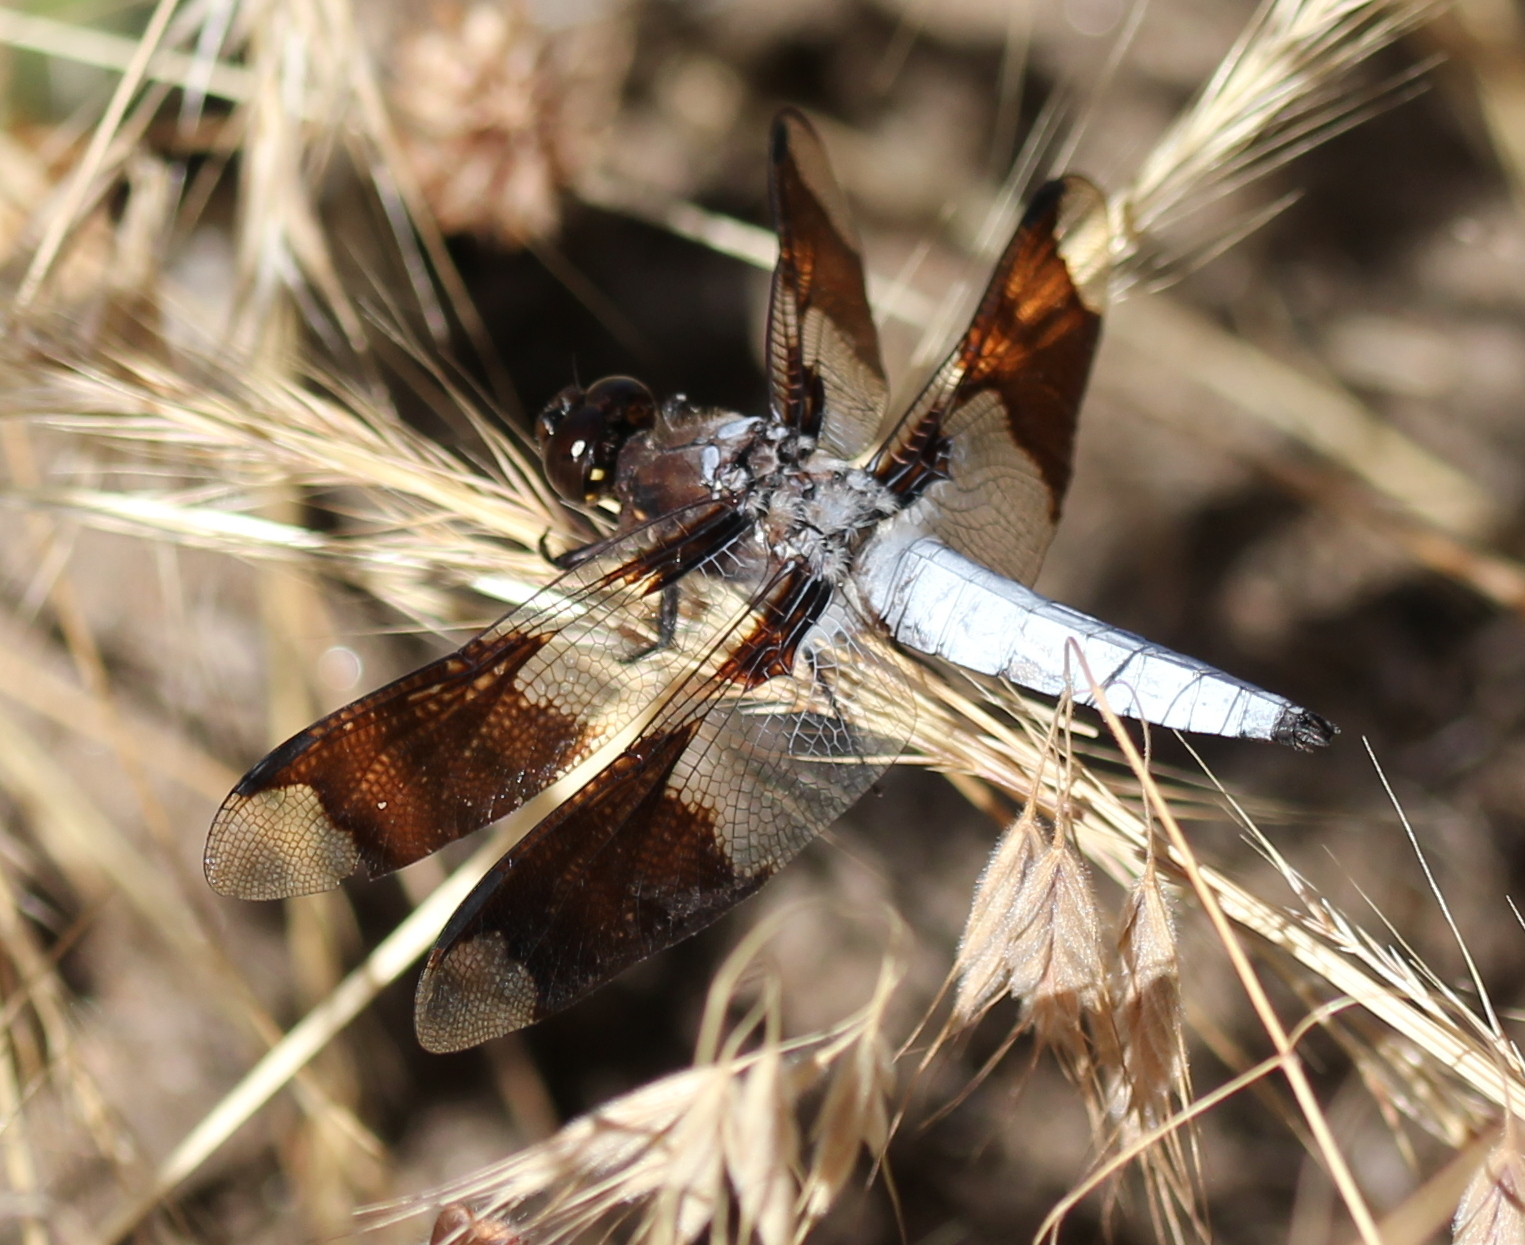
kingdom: Animalia
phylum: Arthropoda
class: Insecta
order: Odonata
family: Libellulidae
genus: Plathemis
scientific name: Plathemis lydia
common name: Common whitetail
